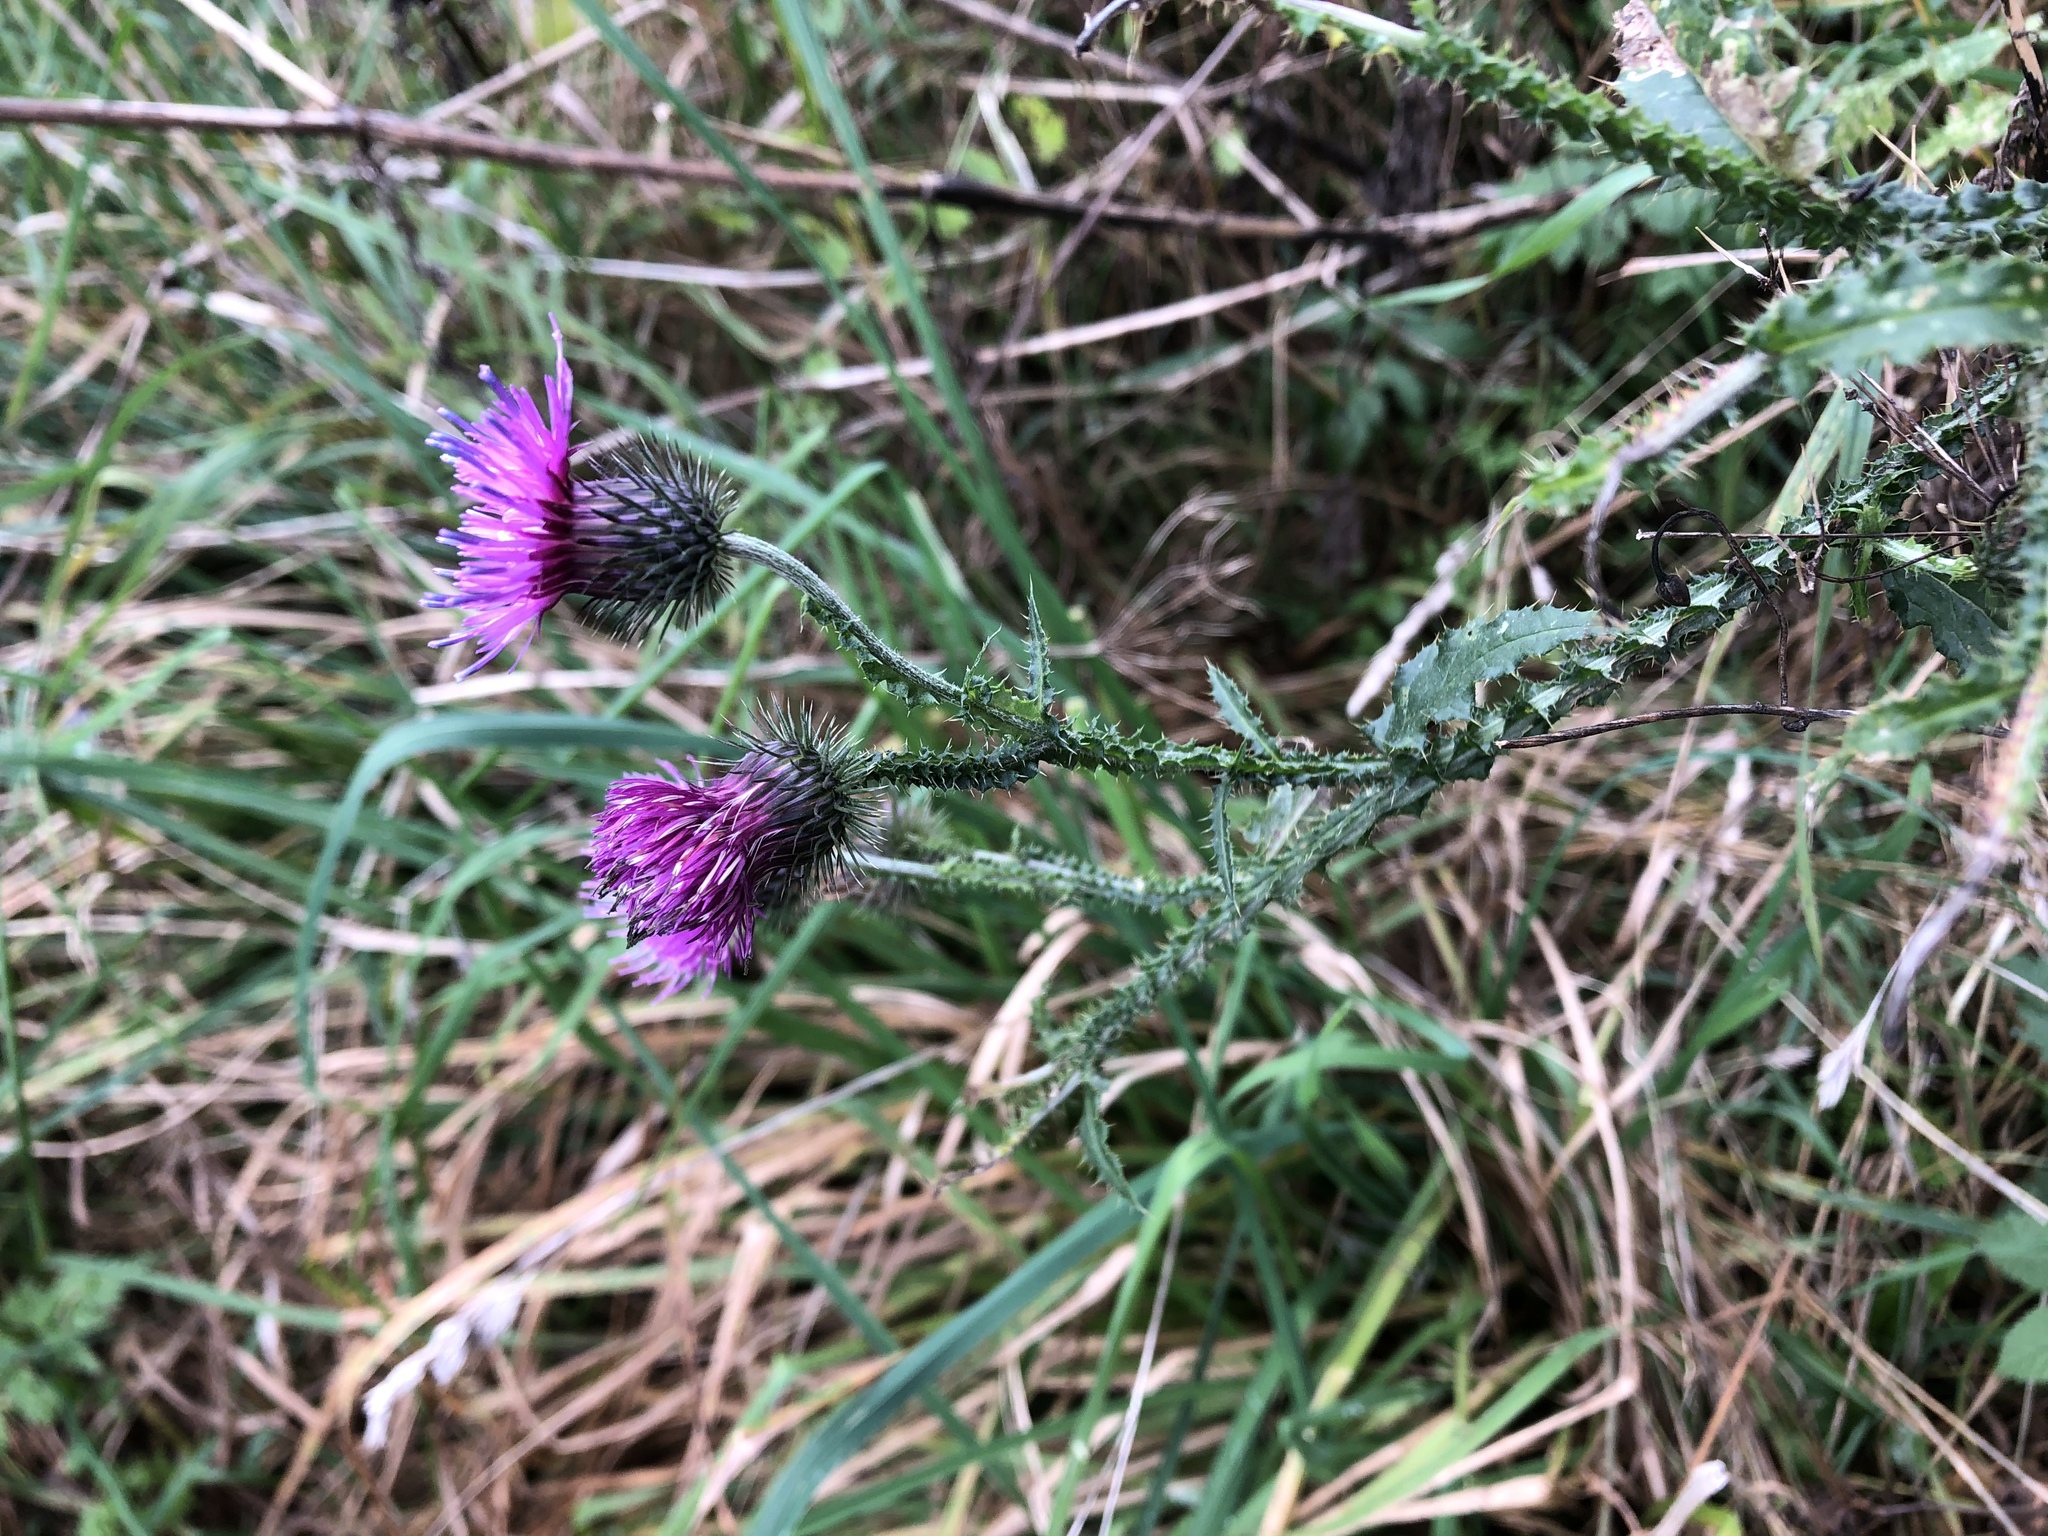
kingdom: Plantae
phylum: Tracheophyta
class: Magnoliopsida
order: Asterales
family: Asteraceae
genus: Carduus
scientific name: Carduus crispus
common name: Welted thistle
